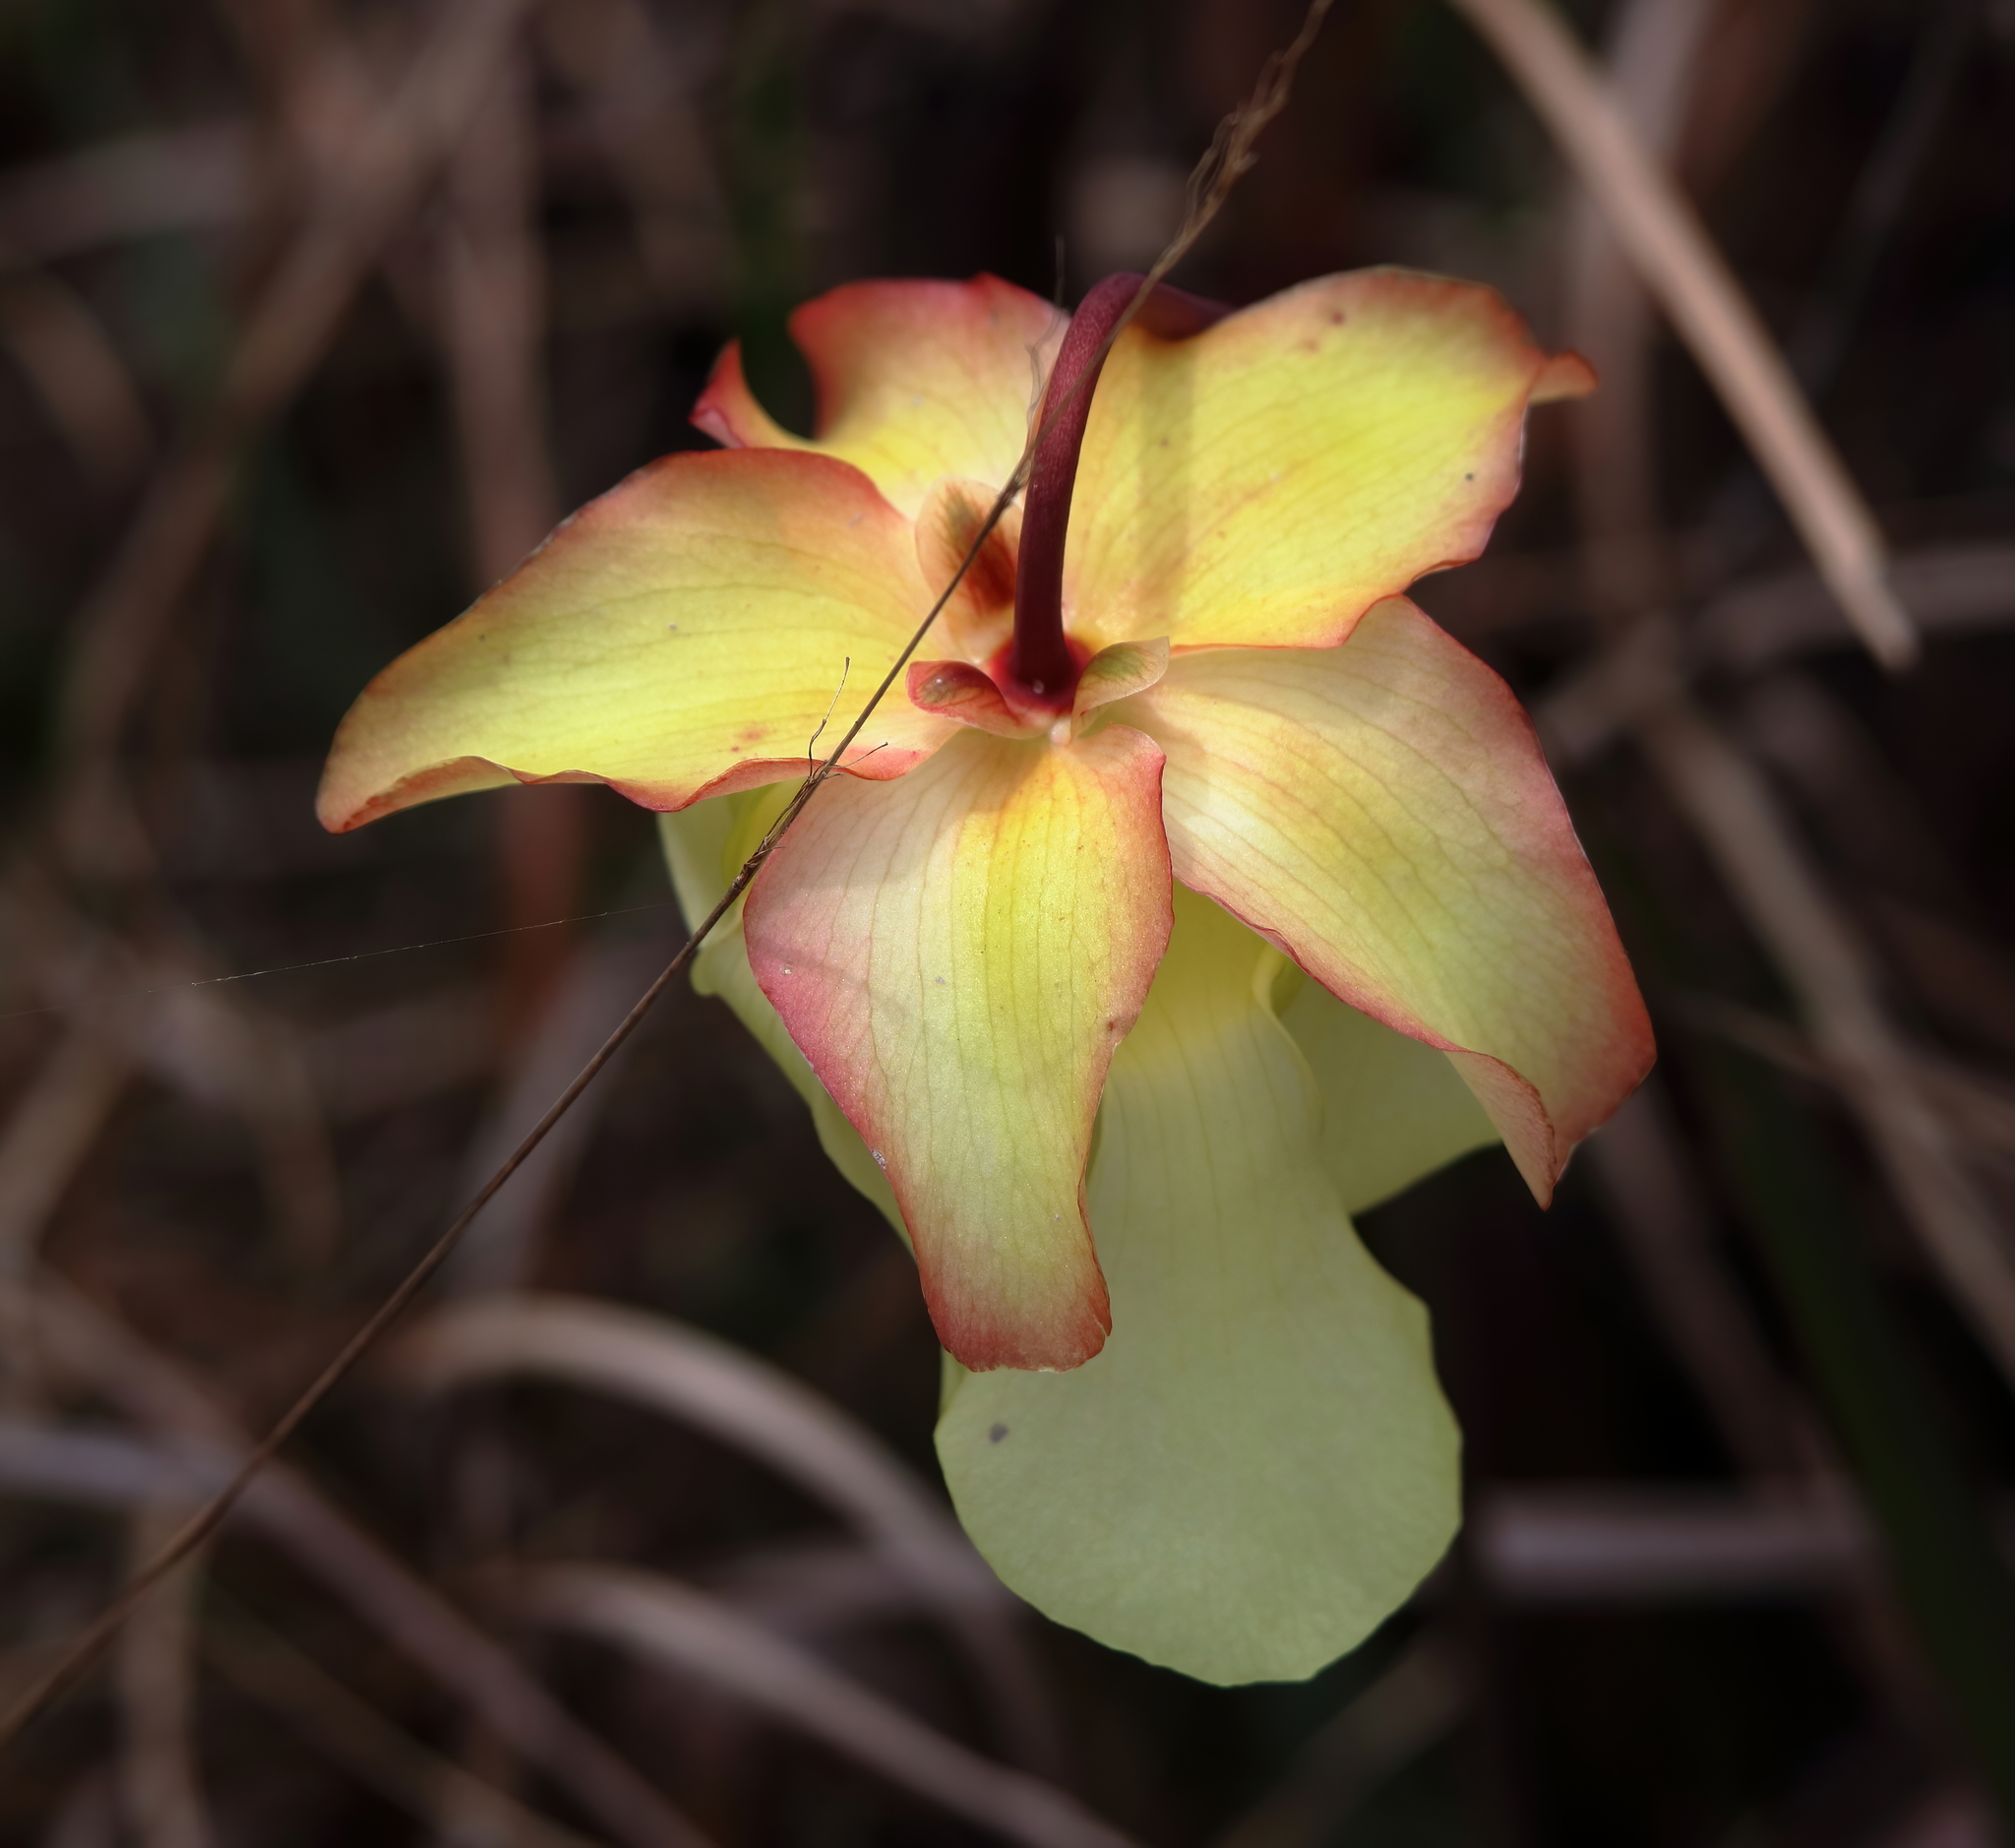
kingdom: Plantae
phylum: Tracheophyta
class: Magnoliopsida
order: Ericales
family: Sarraceniaceae
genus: Sarracenia
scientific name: Sarracenia alata
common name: Yellow trumpets
